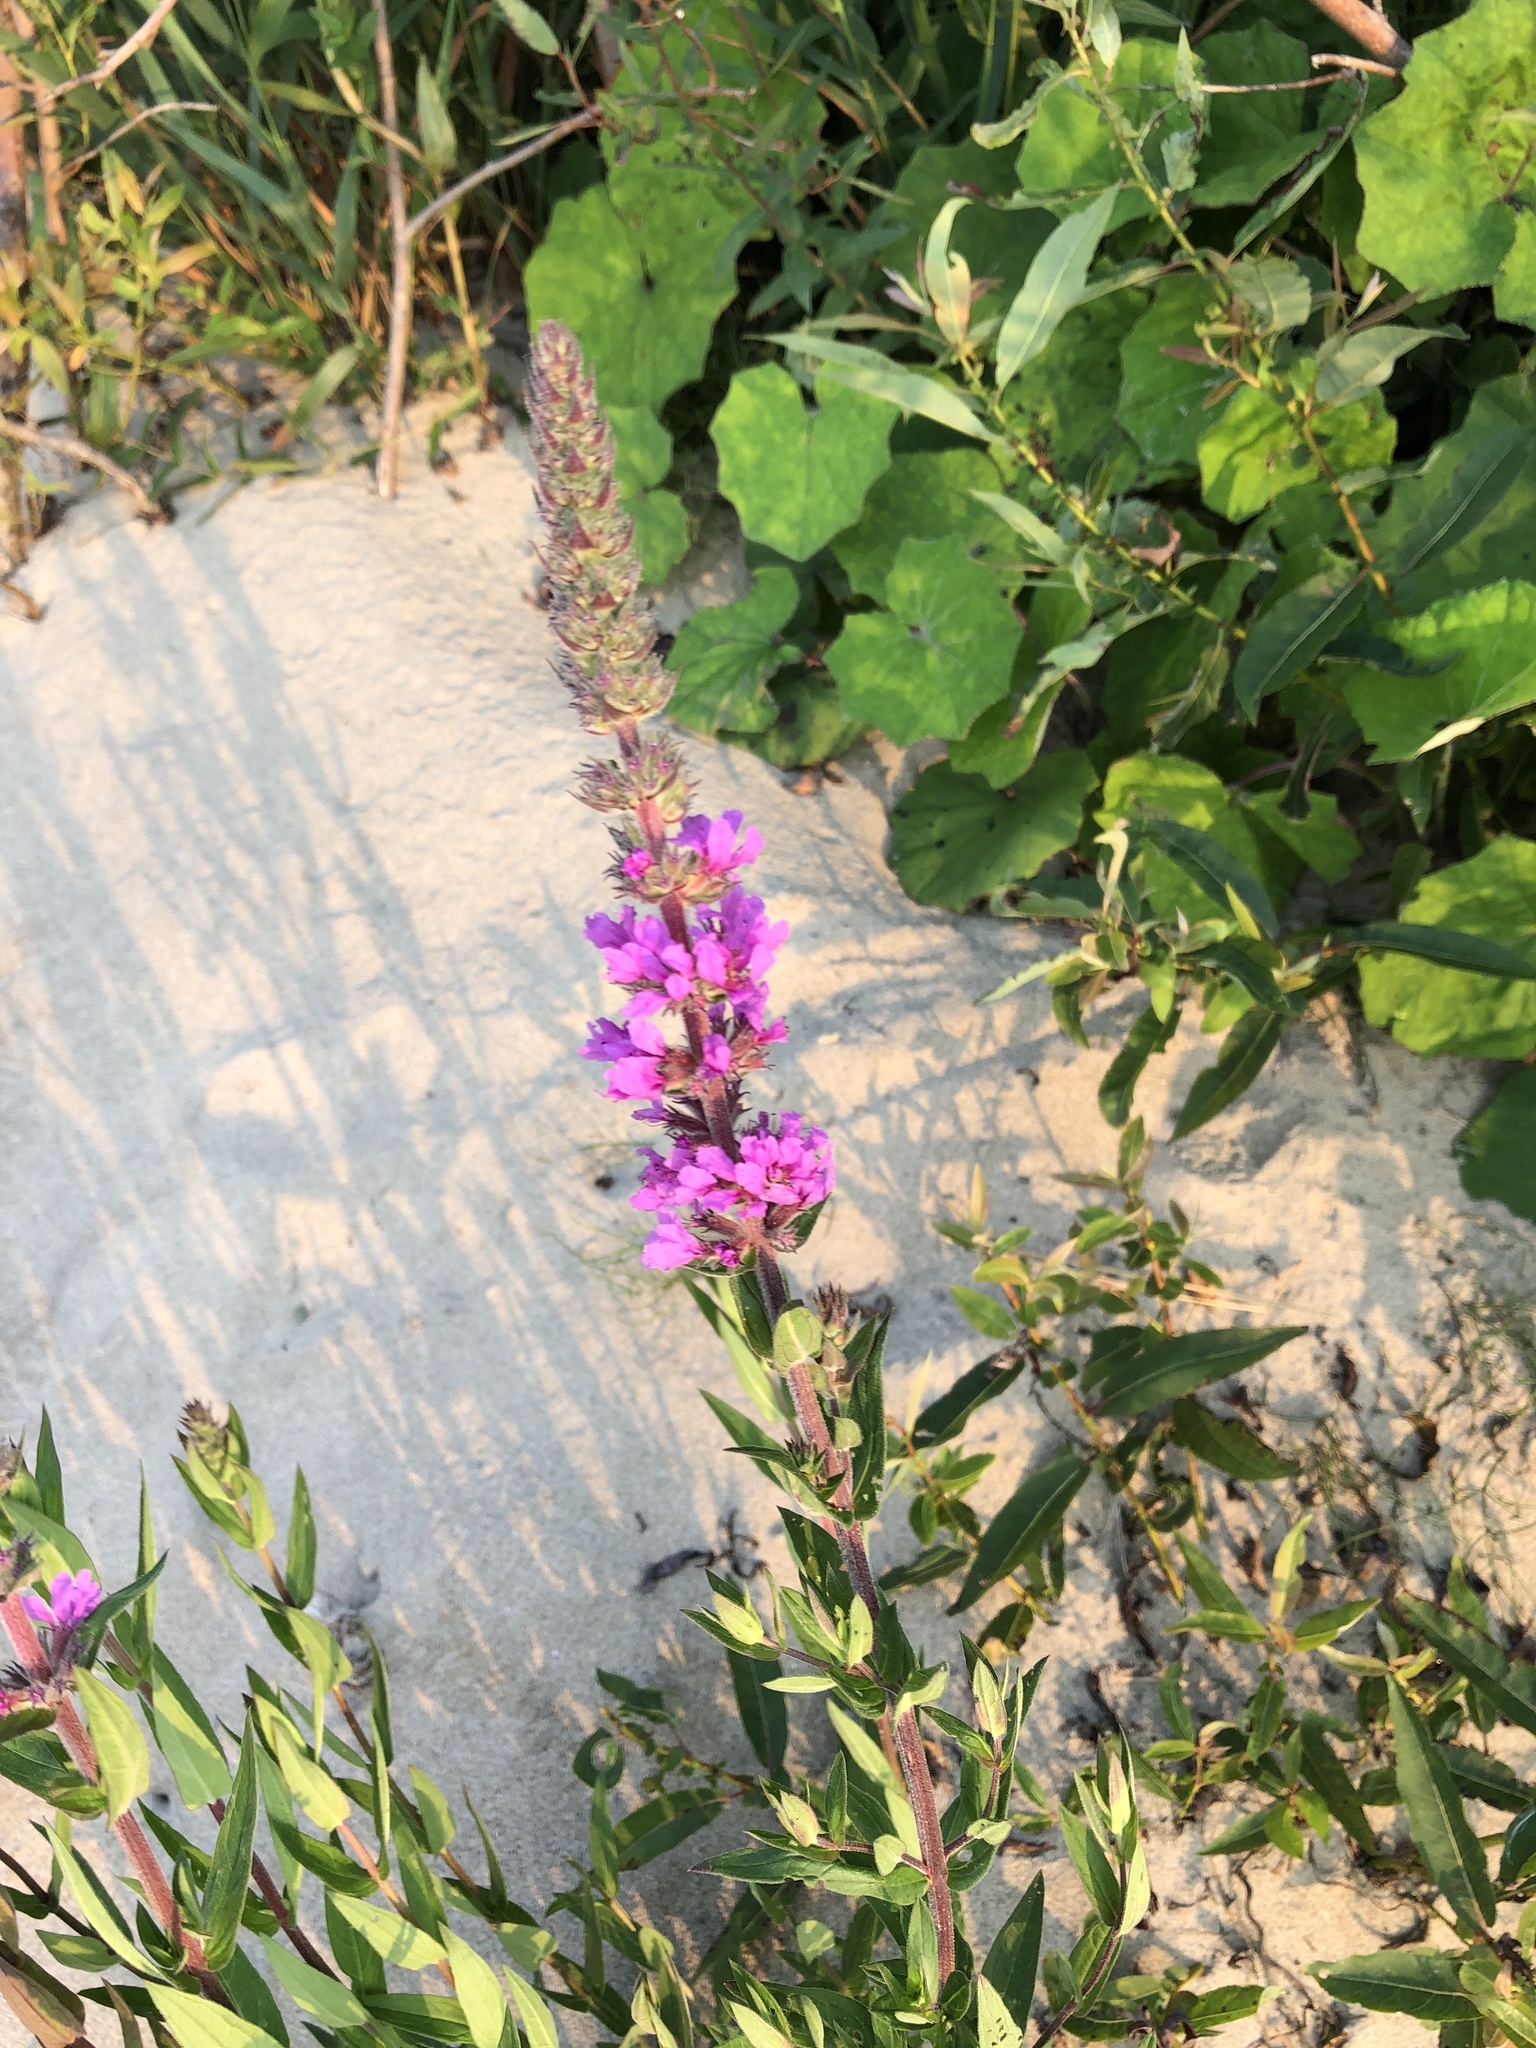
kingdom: Plantae
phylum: Tracheophyta
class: Magnoliopsida
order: Myrtales
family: Lythraceae
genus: Lythrum
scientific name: Lythrum salicaria
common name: Purple loosestrife
